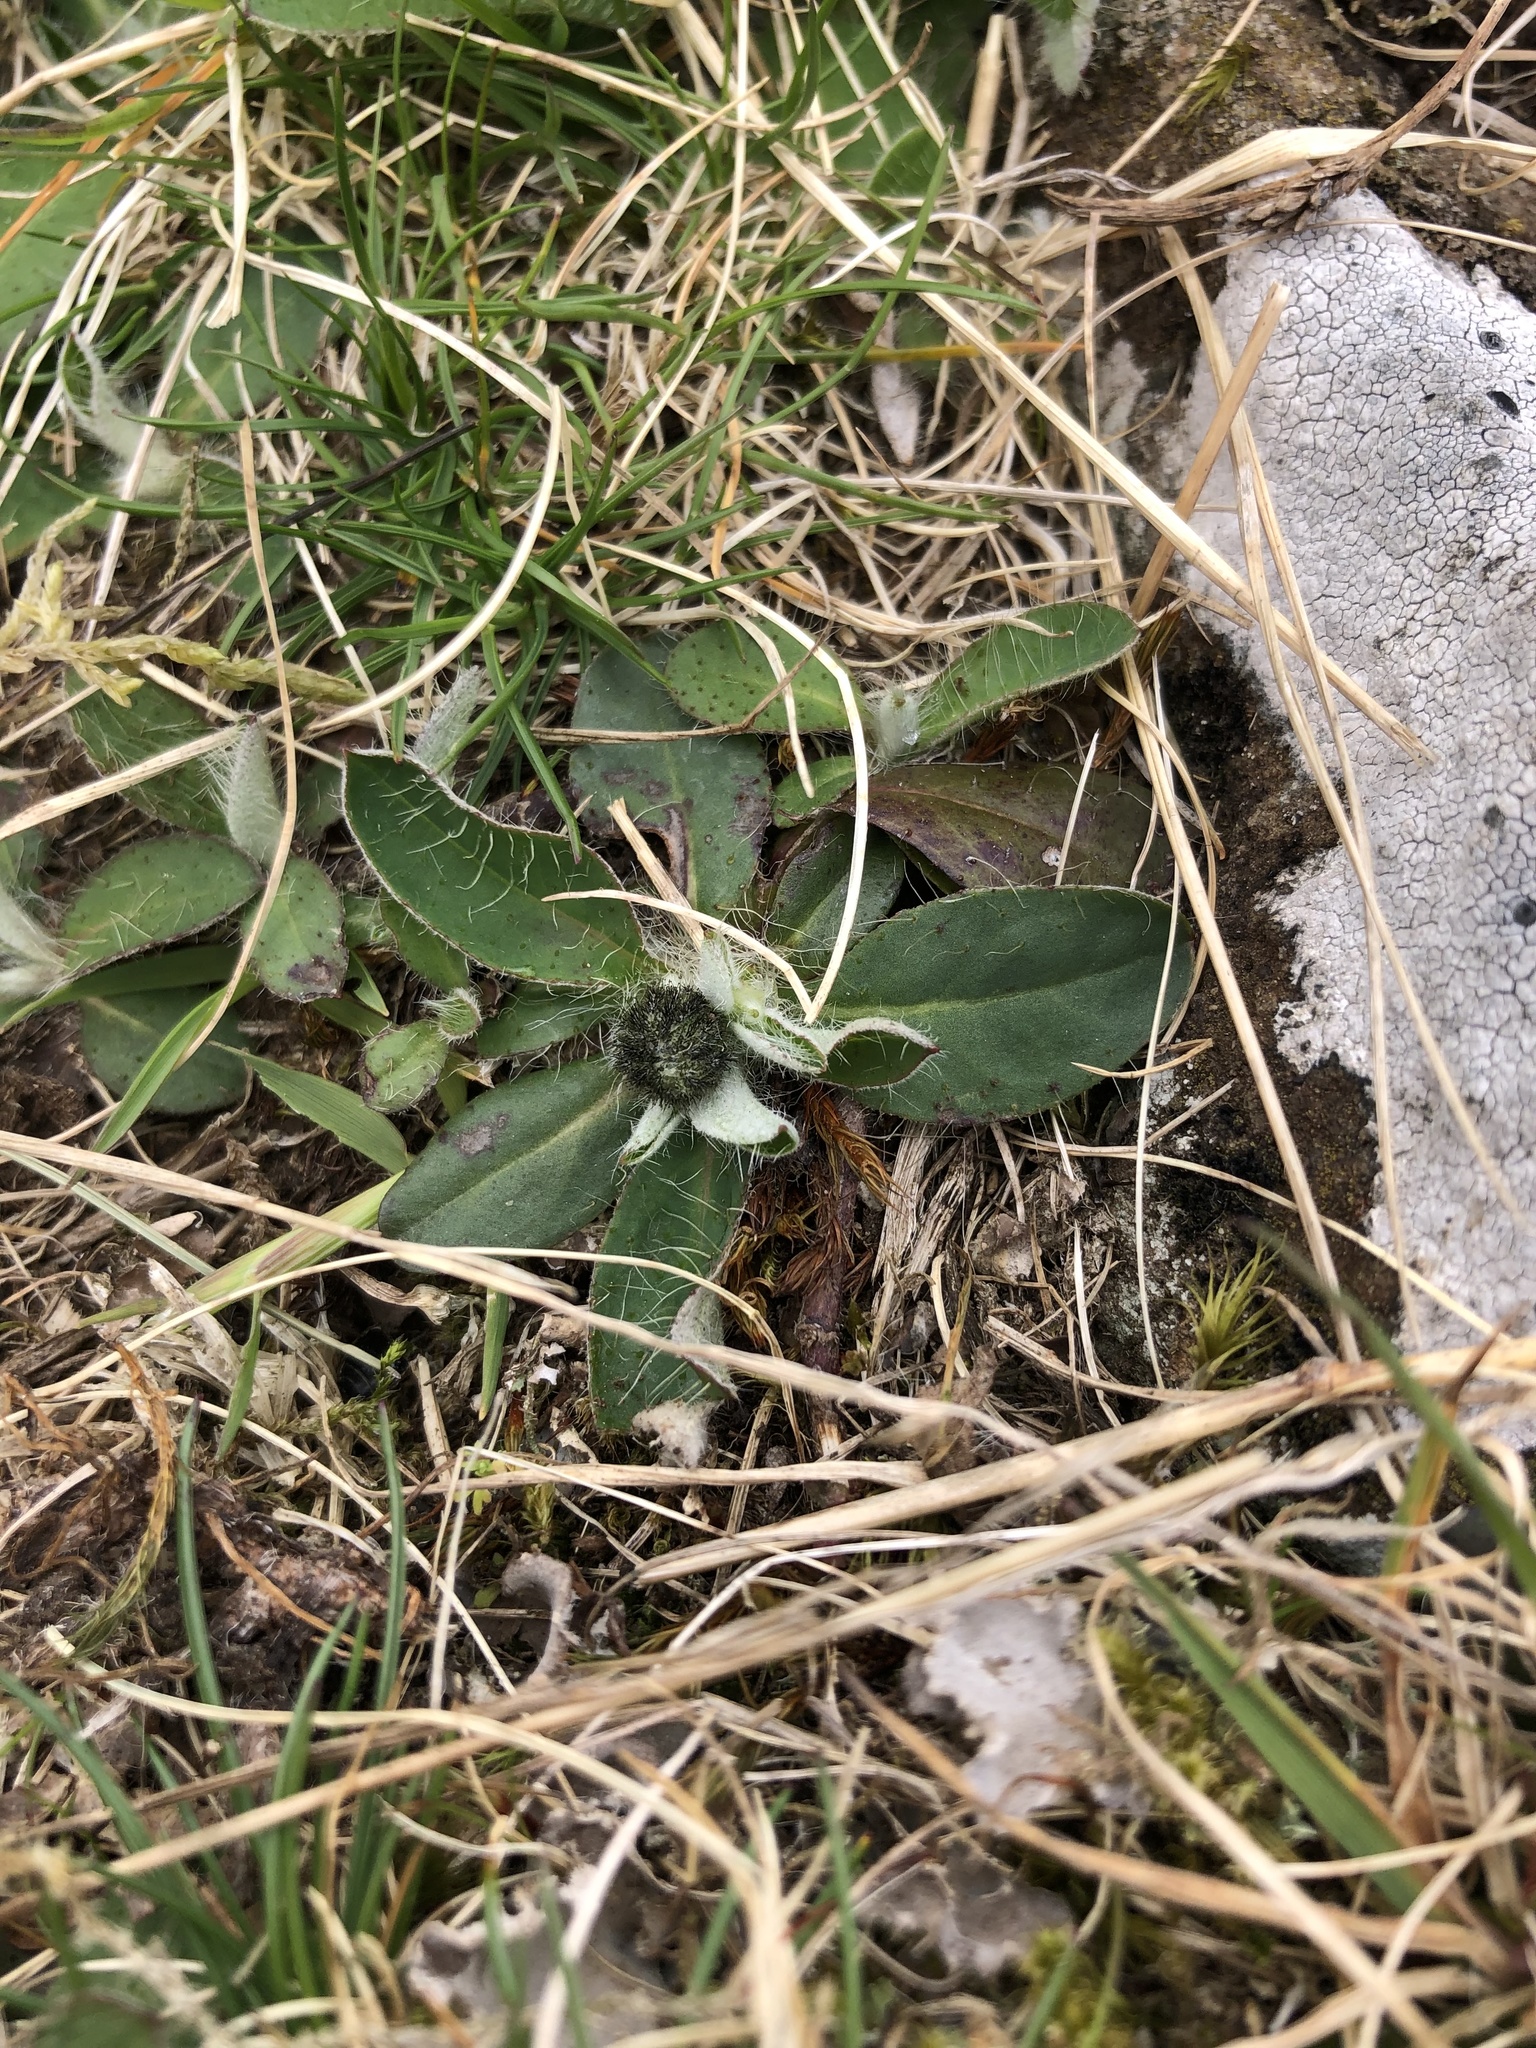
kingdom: Plantae
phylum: Tracheophyta
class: Magnoliopsida
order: Asterales
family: Asteraceae
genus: Pilosella
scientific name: Pilosella officinarum
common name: Mouse-ear hawkweed
